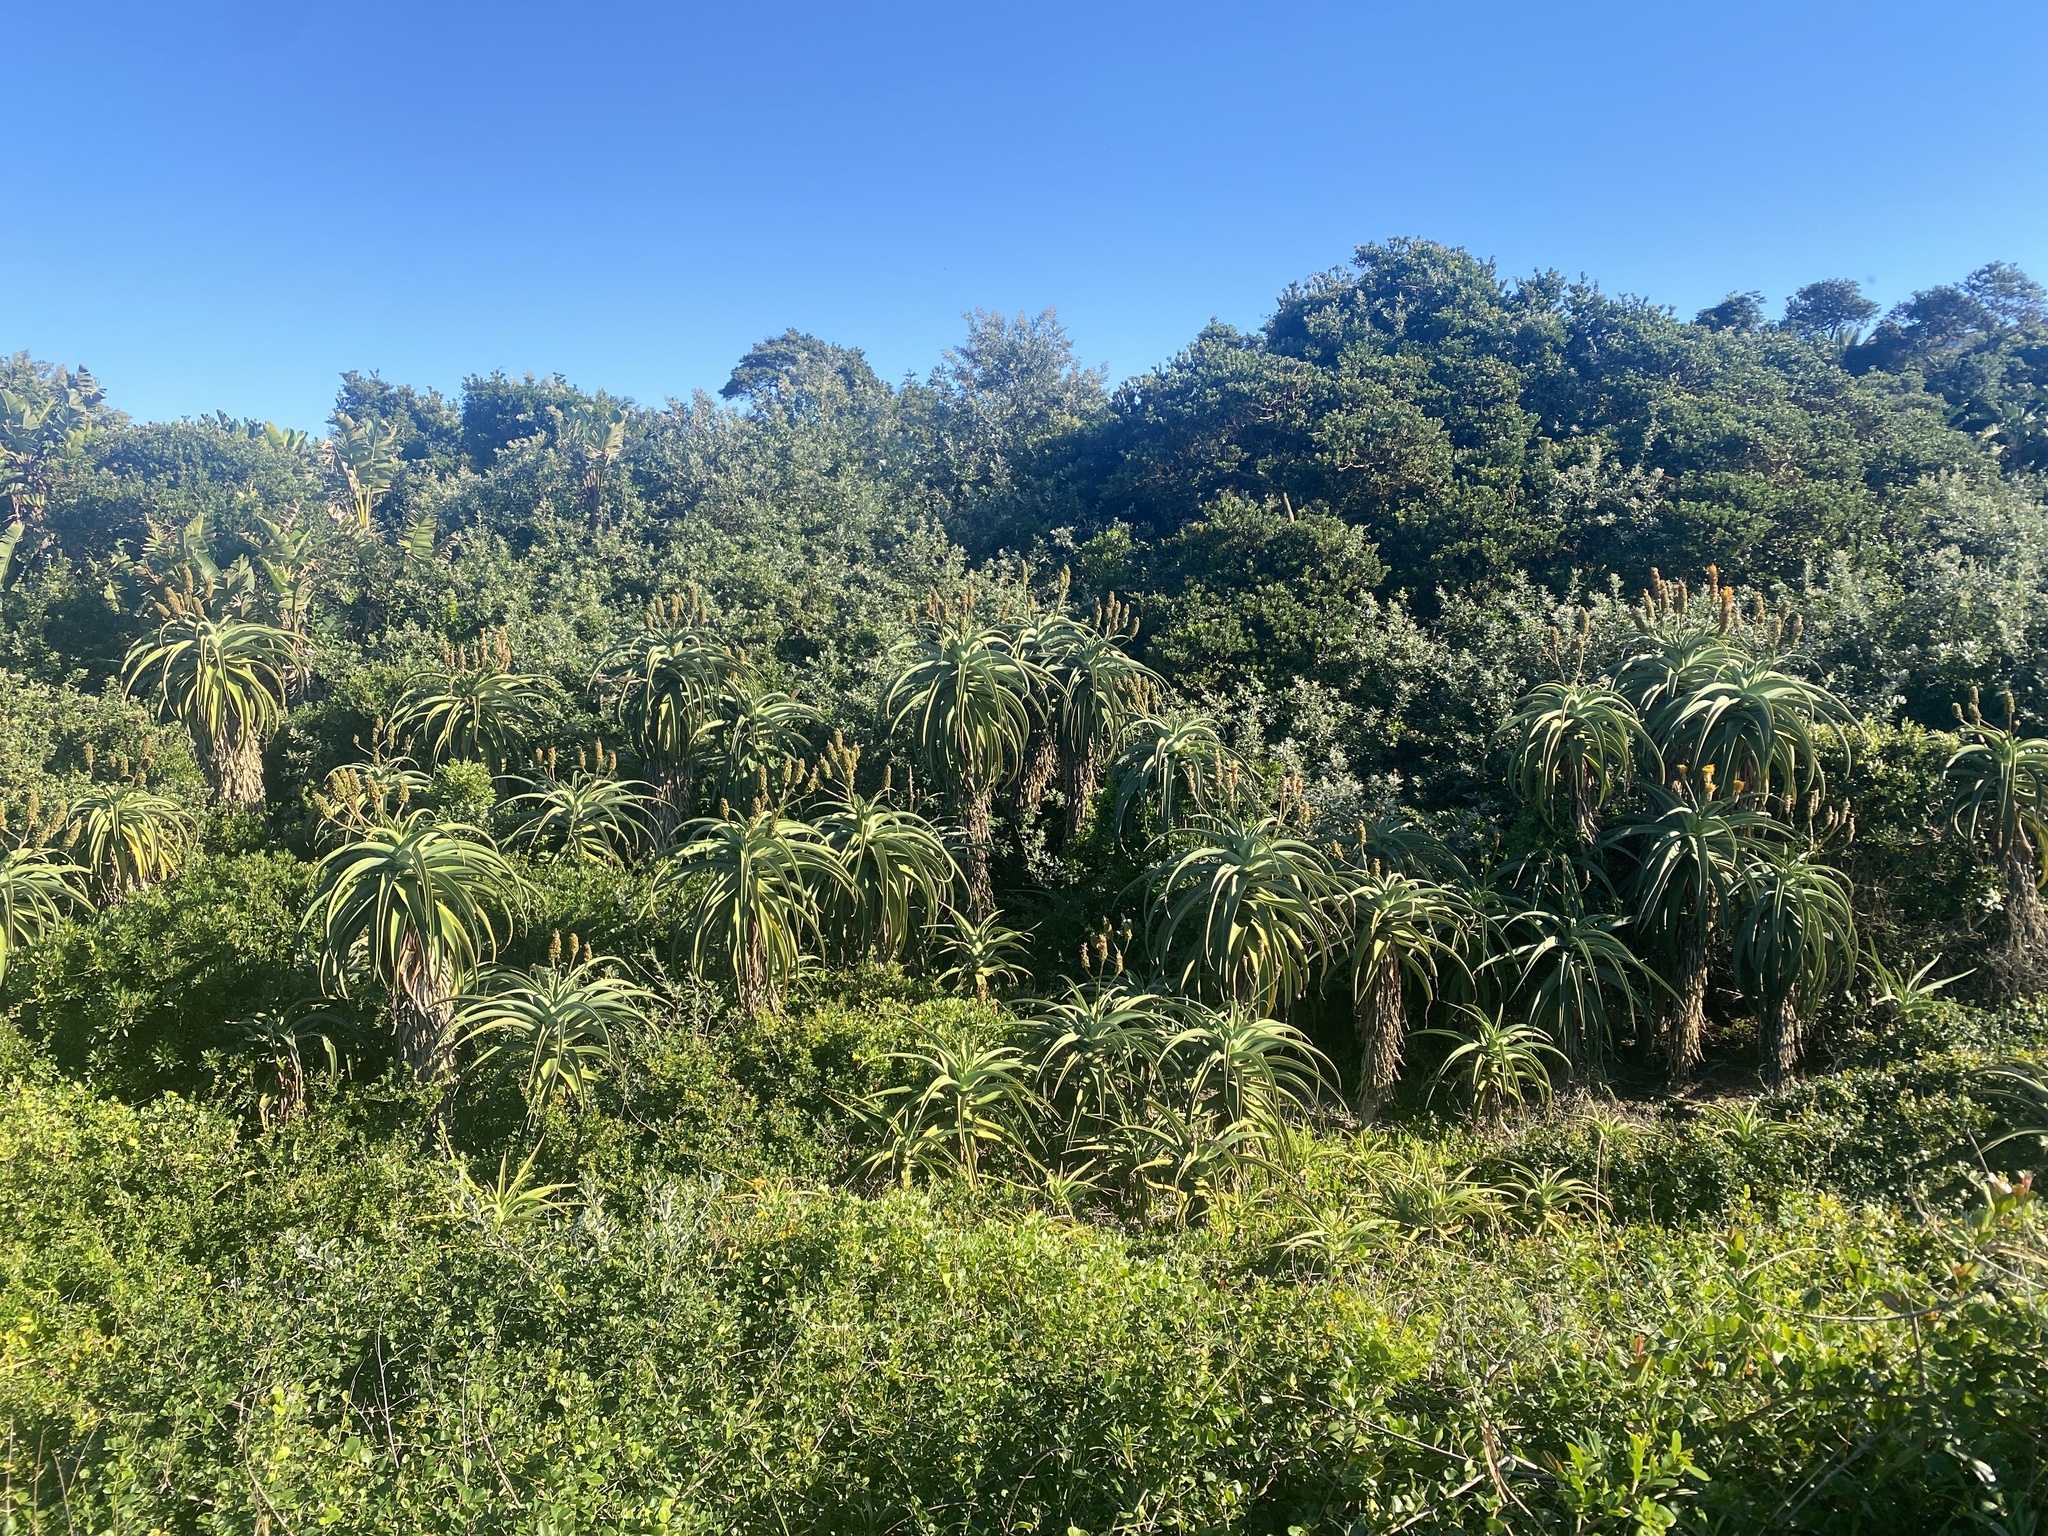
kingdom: Plantae
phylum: Tracheophyta
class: Liliopsida
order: Asparagales
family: Asphodelaceae
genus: Aloe
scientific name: Aloe thraskii
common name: Coast aloe
